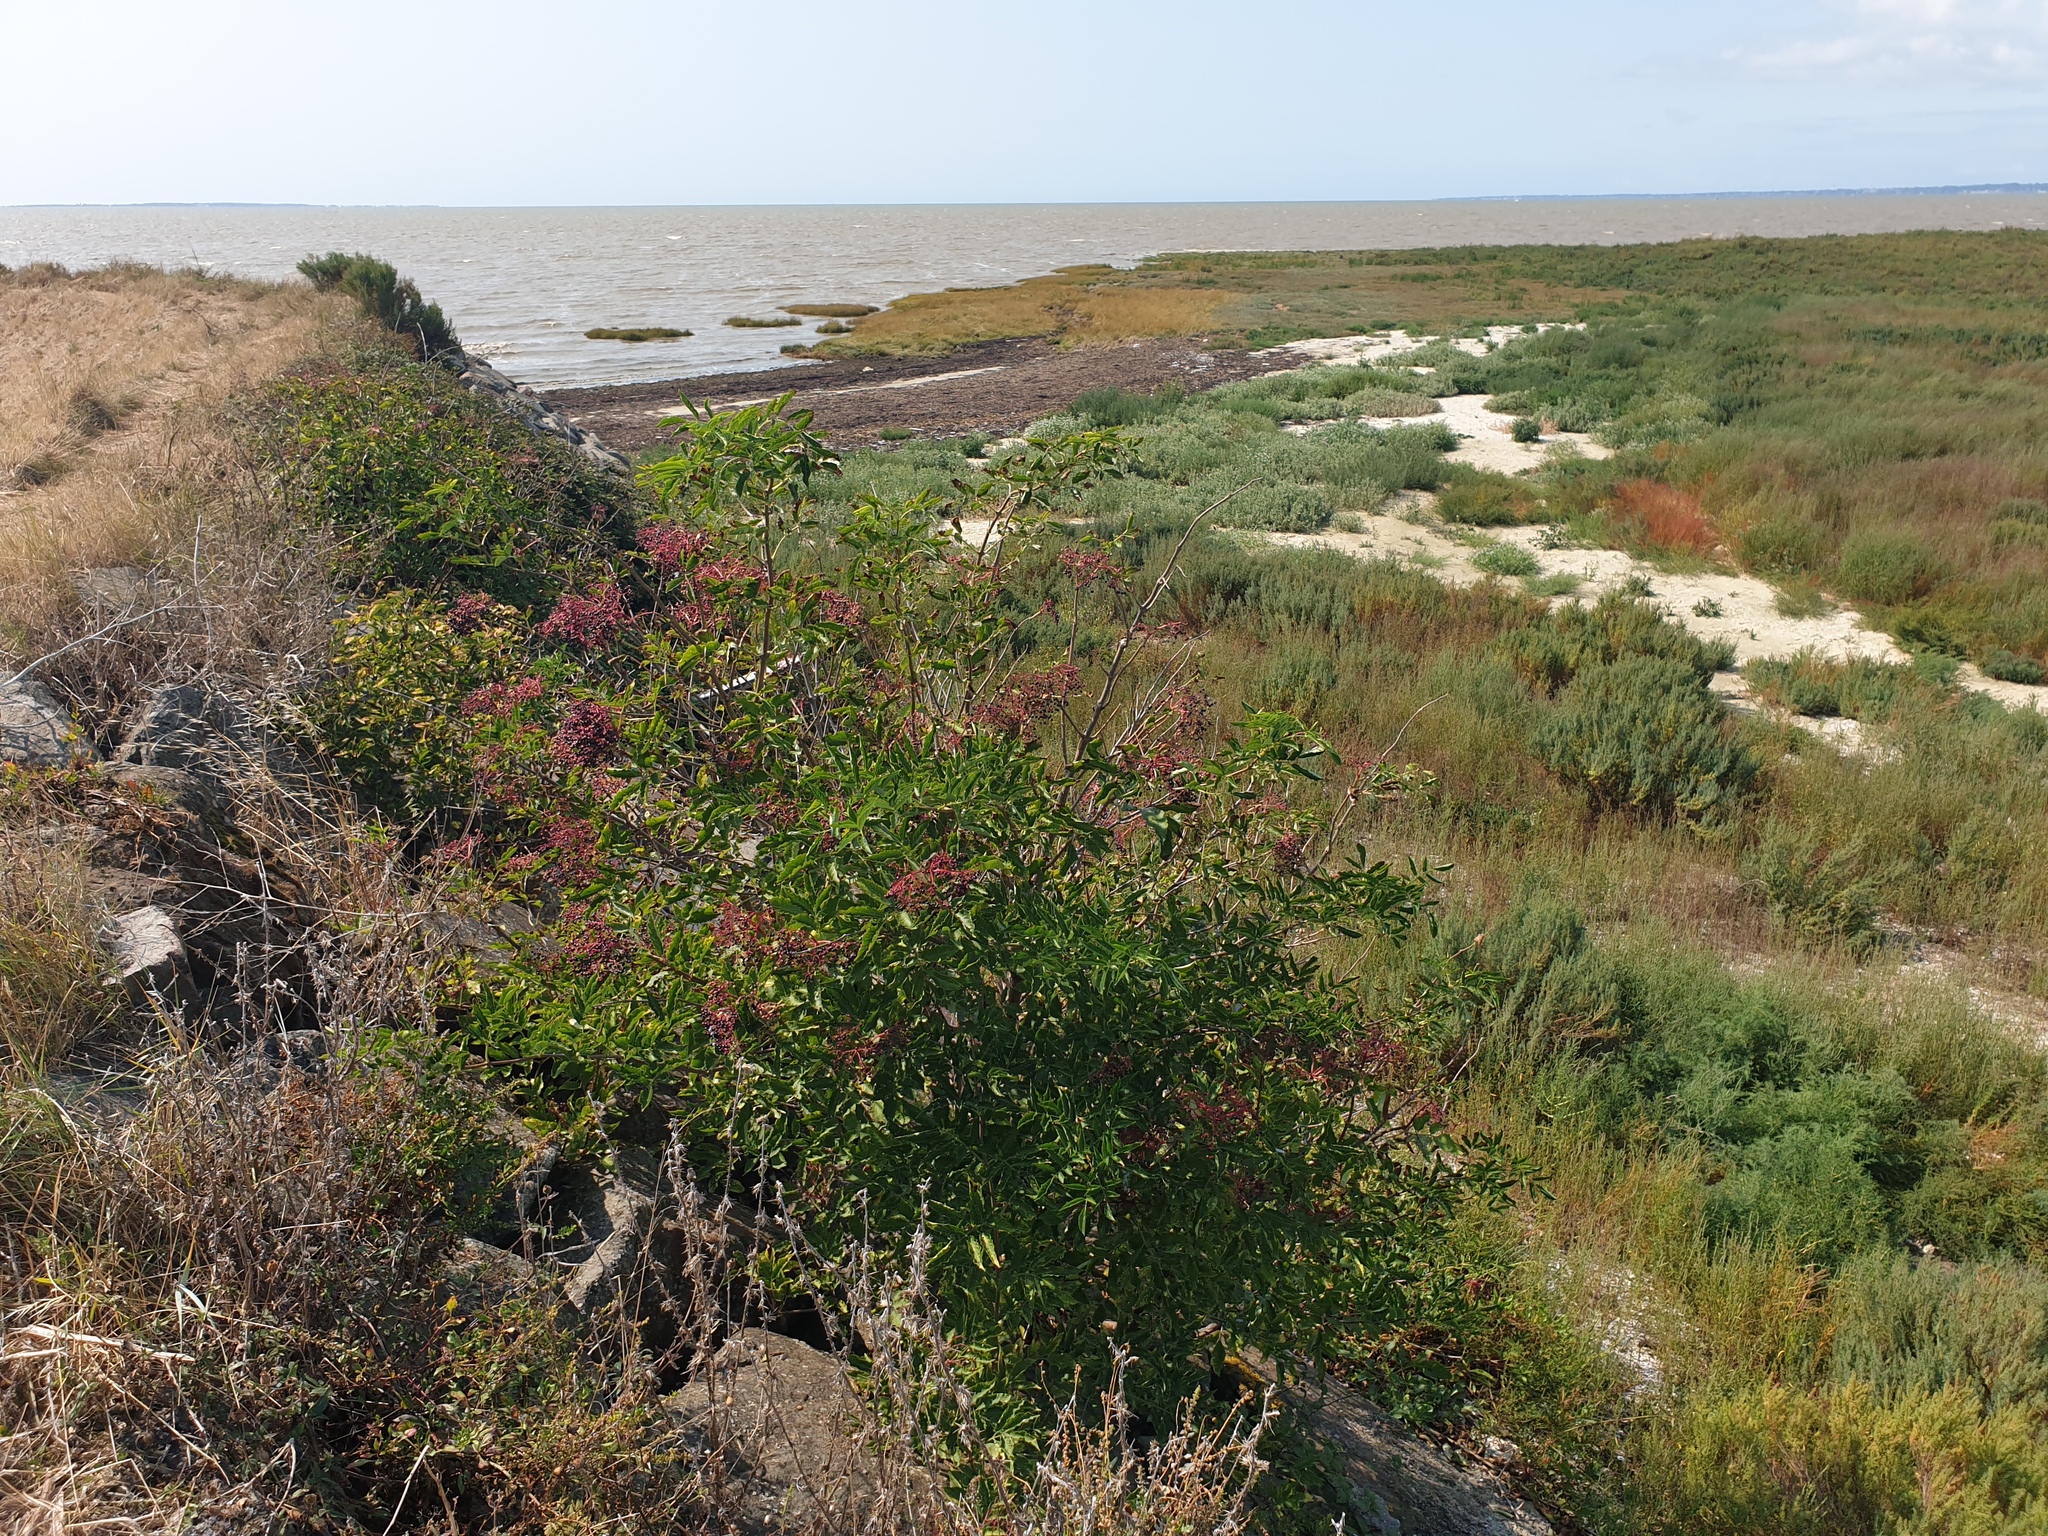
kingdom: Plantae
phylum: Tracheophyta
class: Magnoliopsida
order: Dipsacales
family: Viburnaceae
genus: Sambucus
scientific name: Sambucus nigra
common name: Elder
